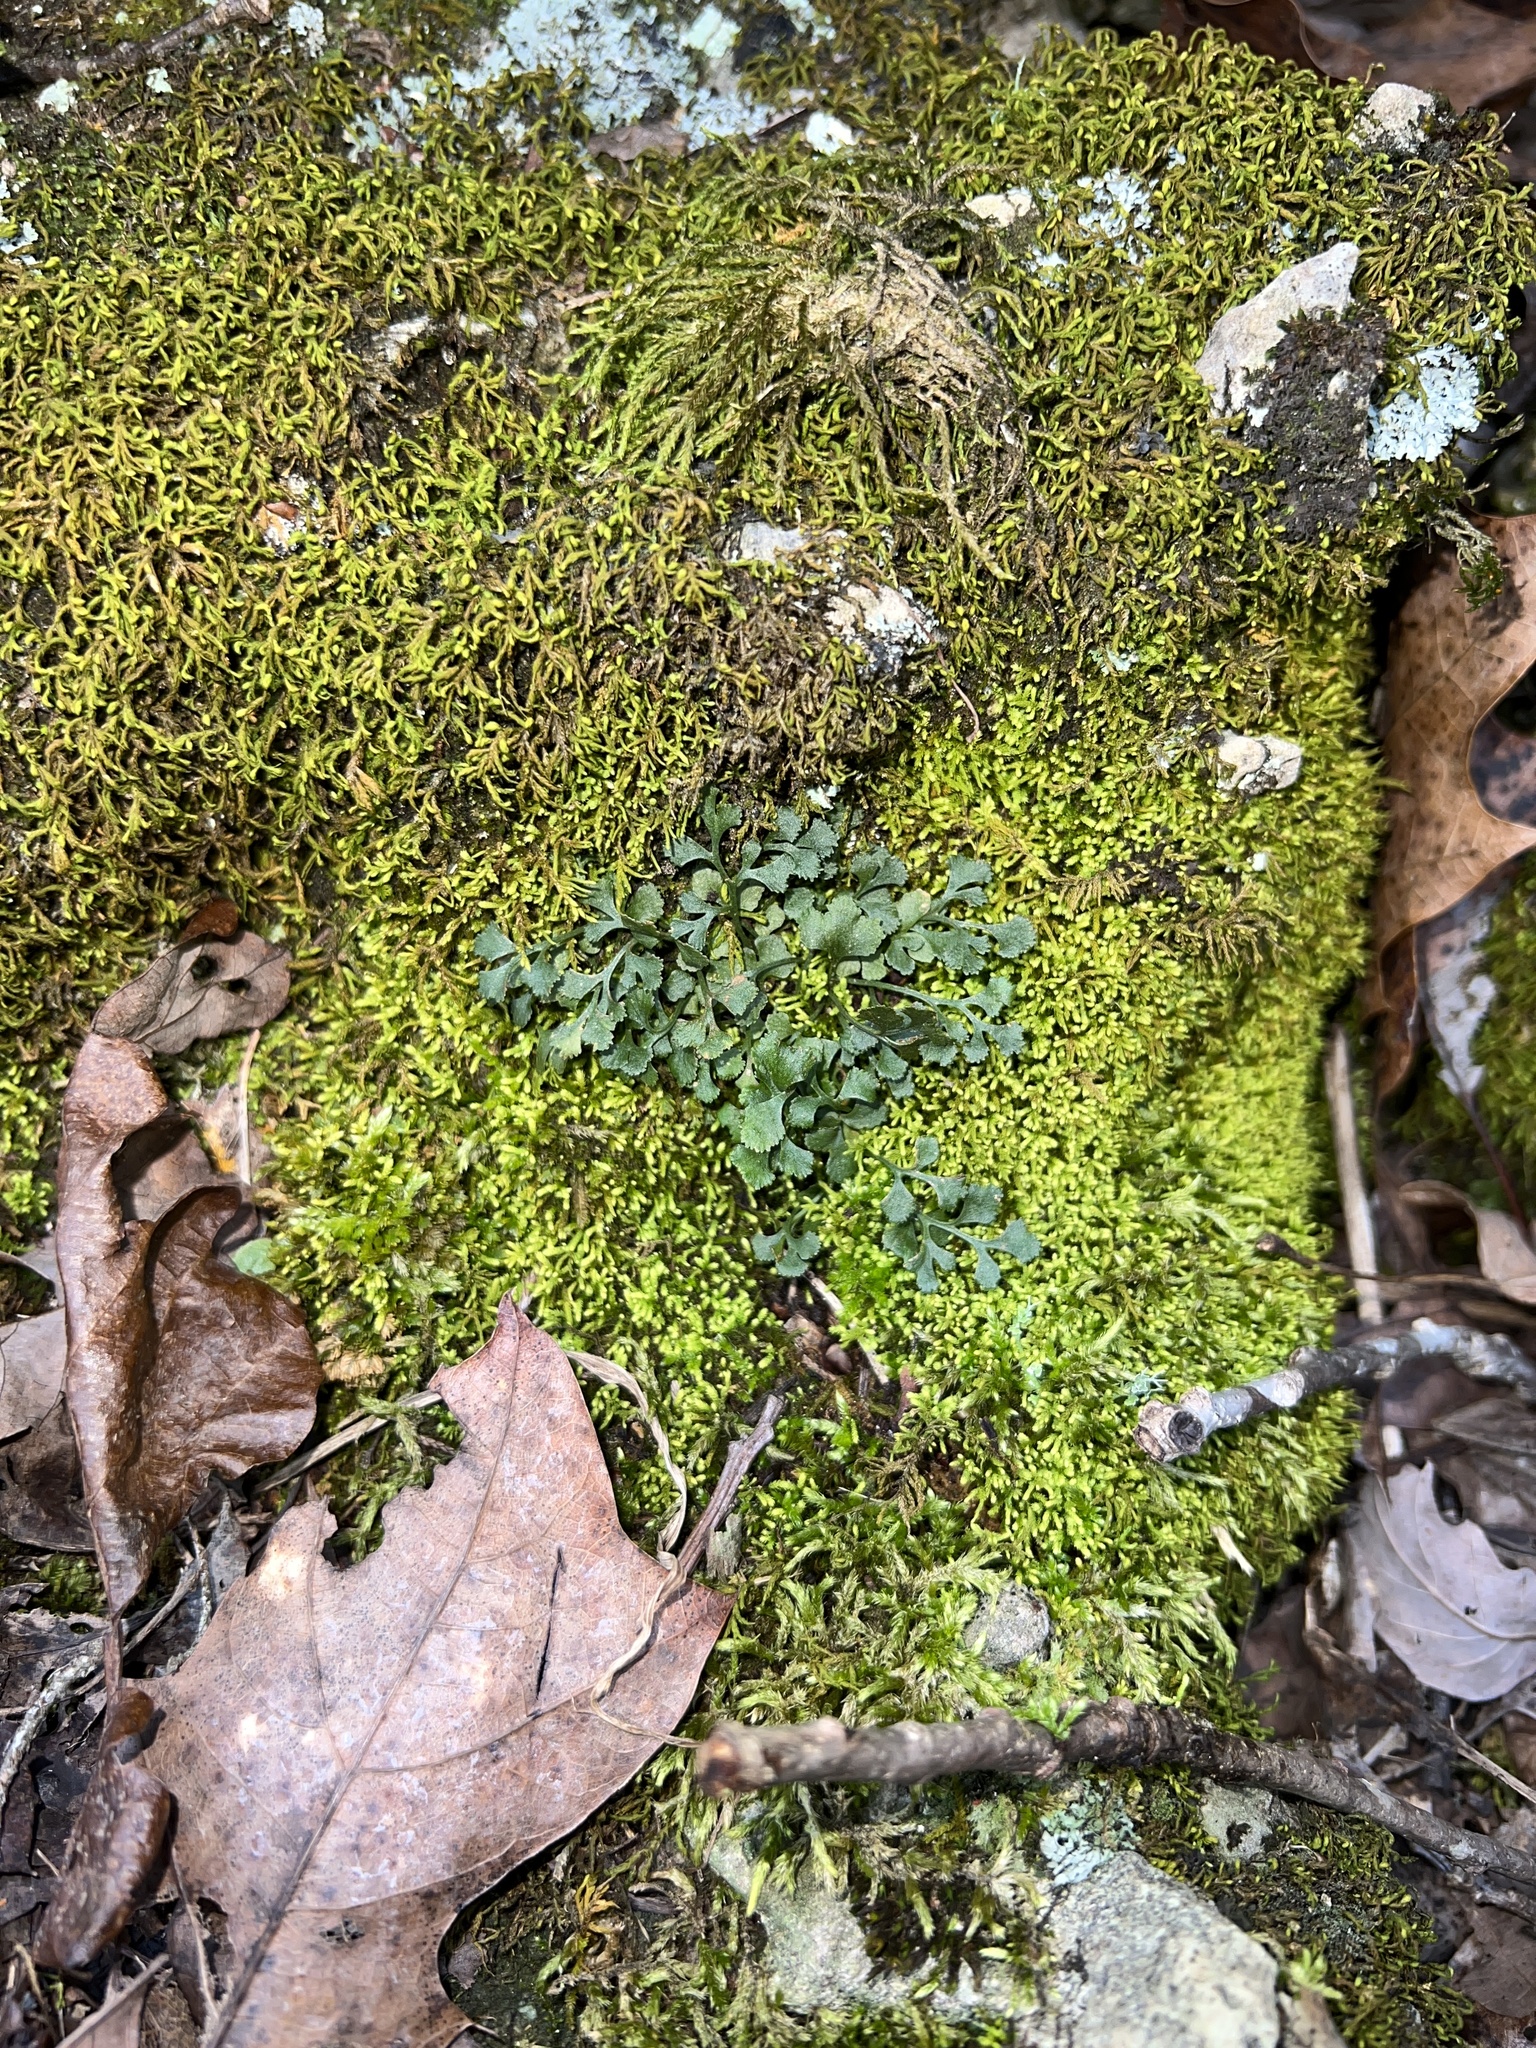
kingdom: Plantae
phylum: Tracheophyta
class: Polypodiopsida
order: Polypodiales
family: Aspleniaceae
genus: Asplenium
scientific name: Asplenium ruta-muraria
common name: Wall-rue
